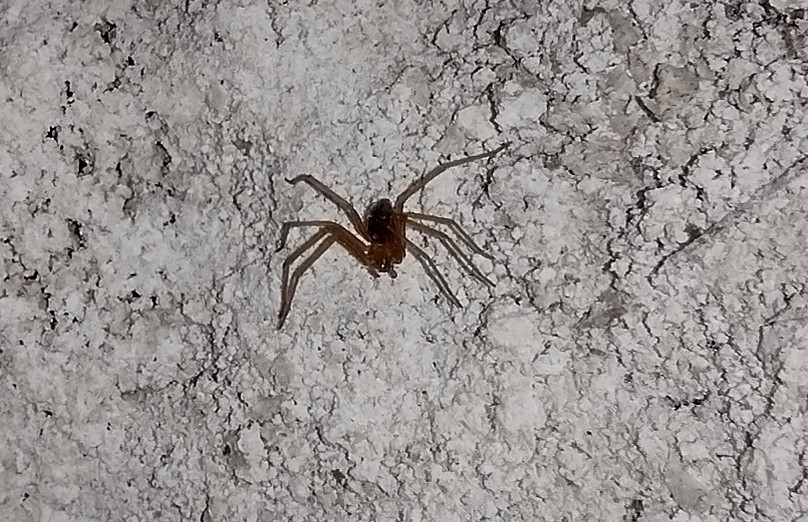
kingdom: Animalia
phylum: Arthropoda
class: Arachnida
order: Araneae
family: Sicariidae
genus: Loxosceles
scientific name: Loxosceles yucatana
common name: Violin spiders
